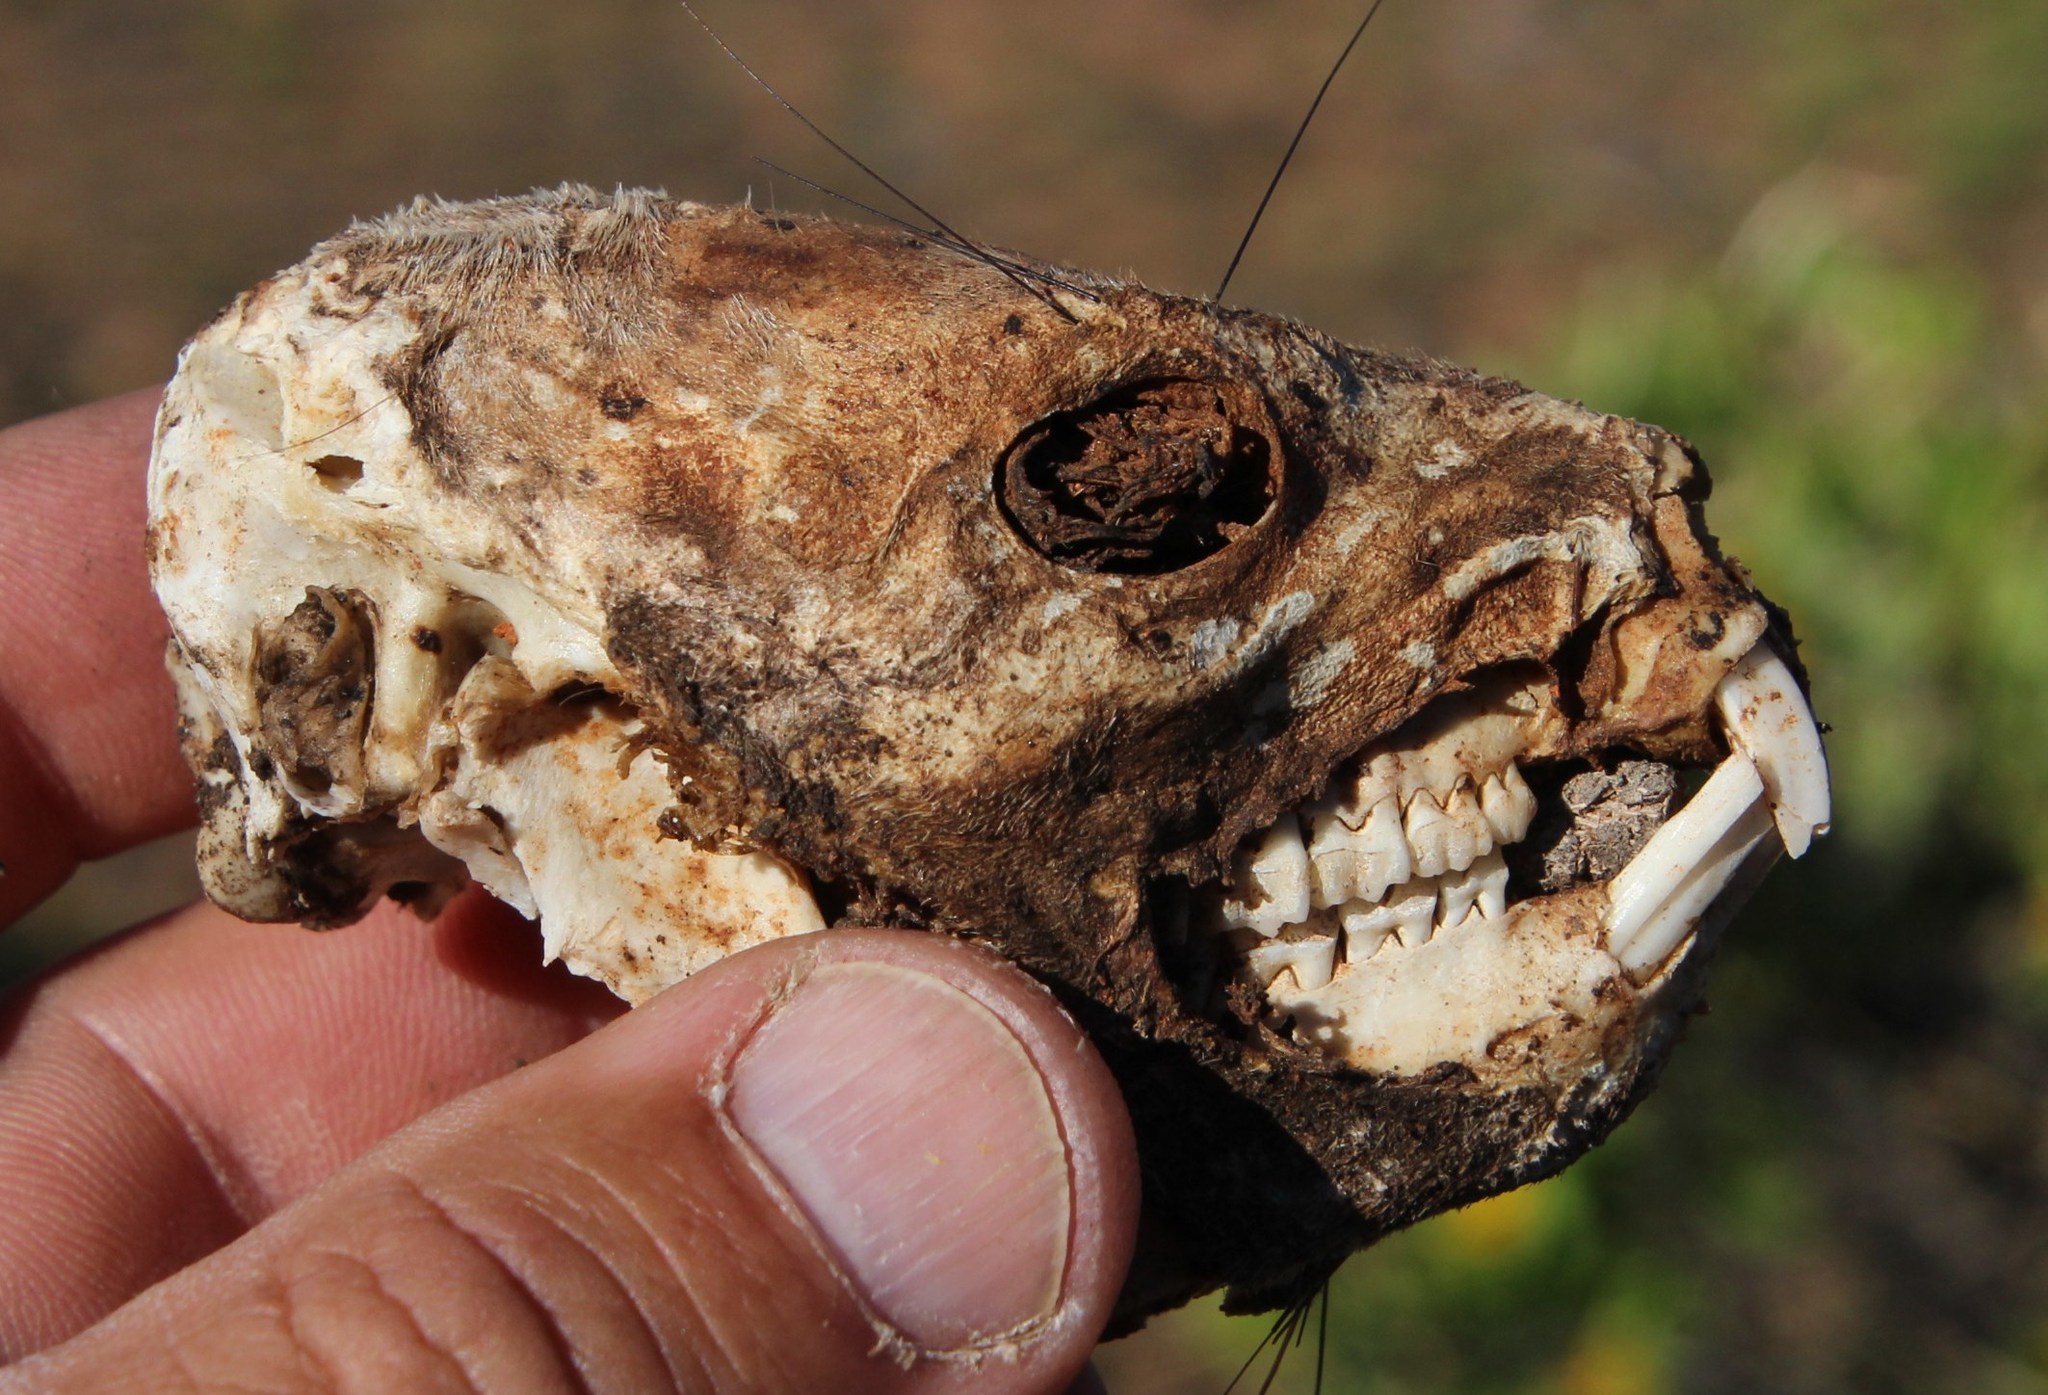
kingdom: Animalia
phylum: Chordata
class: Mammalia
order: Hyracoidea
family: Procaviidae
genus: Procavia
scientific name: Procavia capensis
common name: Rock hyrax
